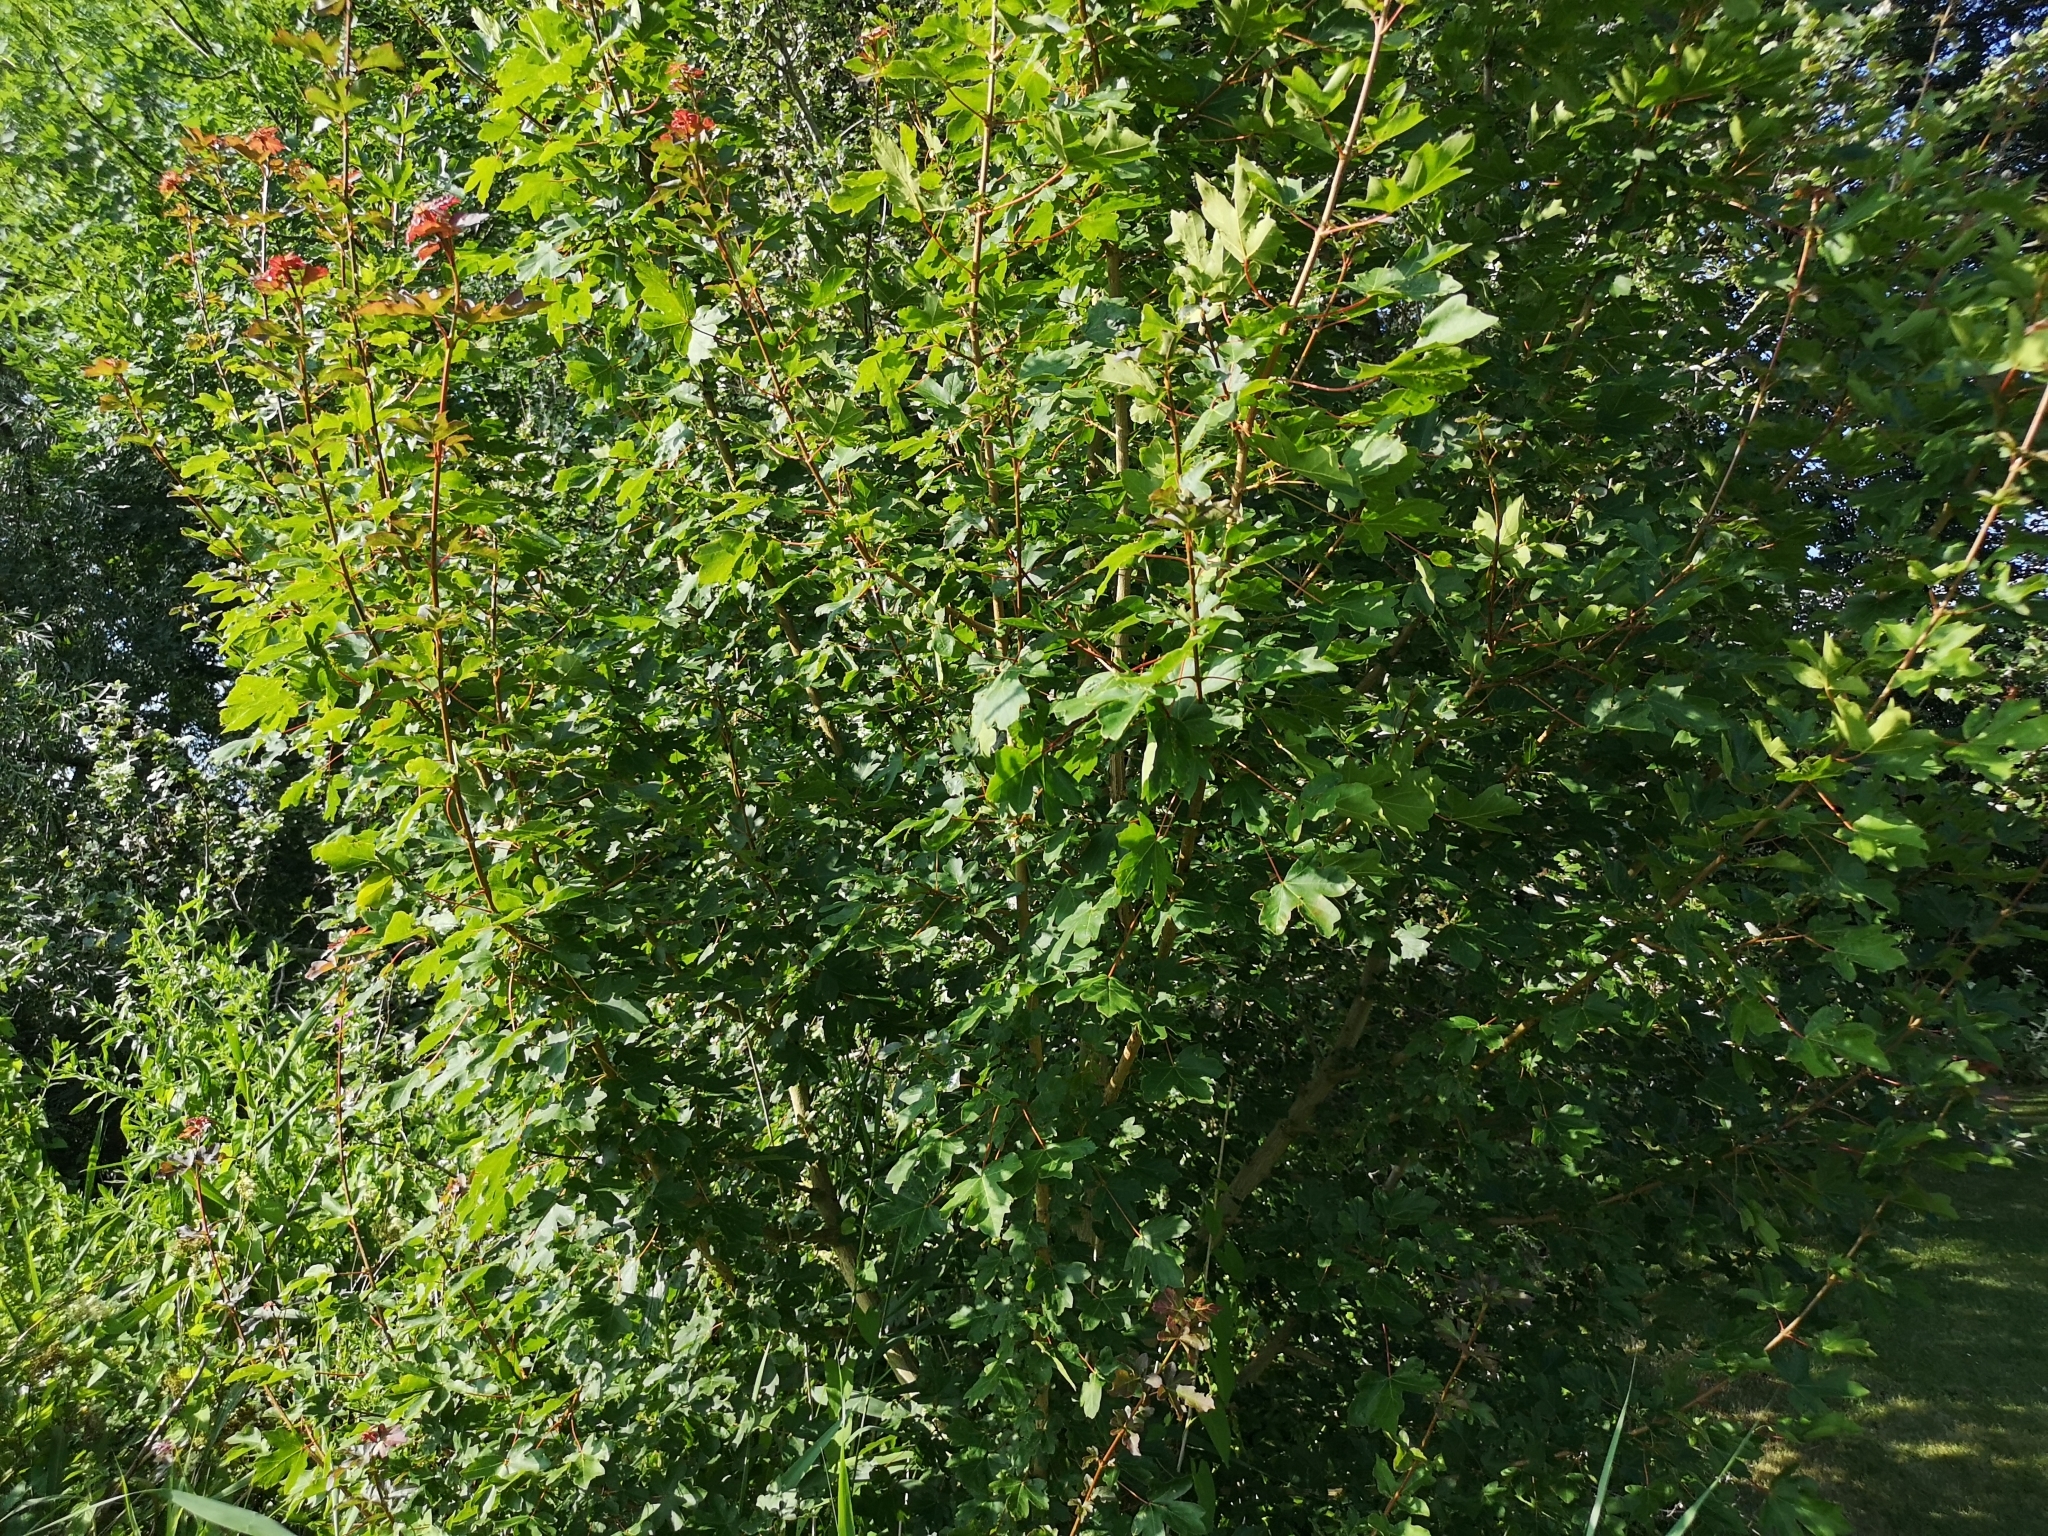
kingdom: Plantae
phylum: Tracheophyta
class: Magnoliopsida
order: Sapindales
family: Sapindaceae
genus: Acer
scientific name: Acer campestre
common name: Field maple
